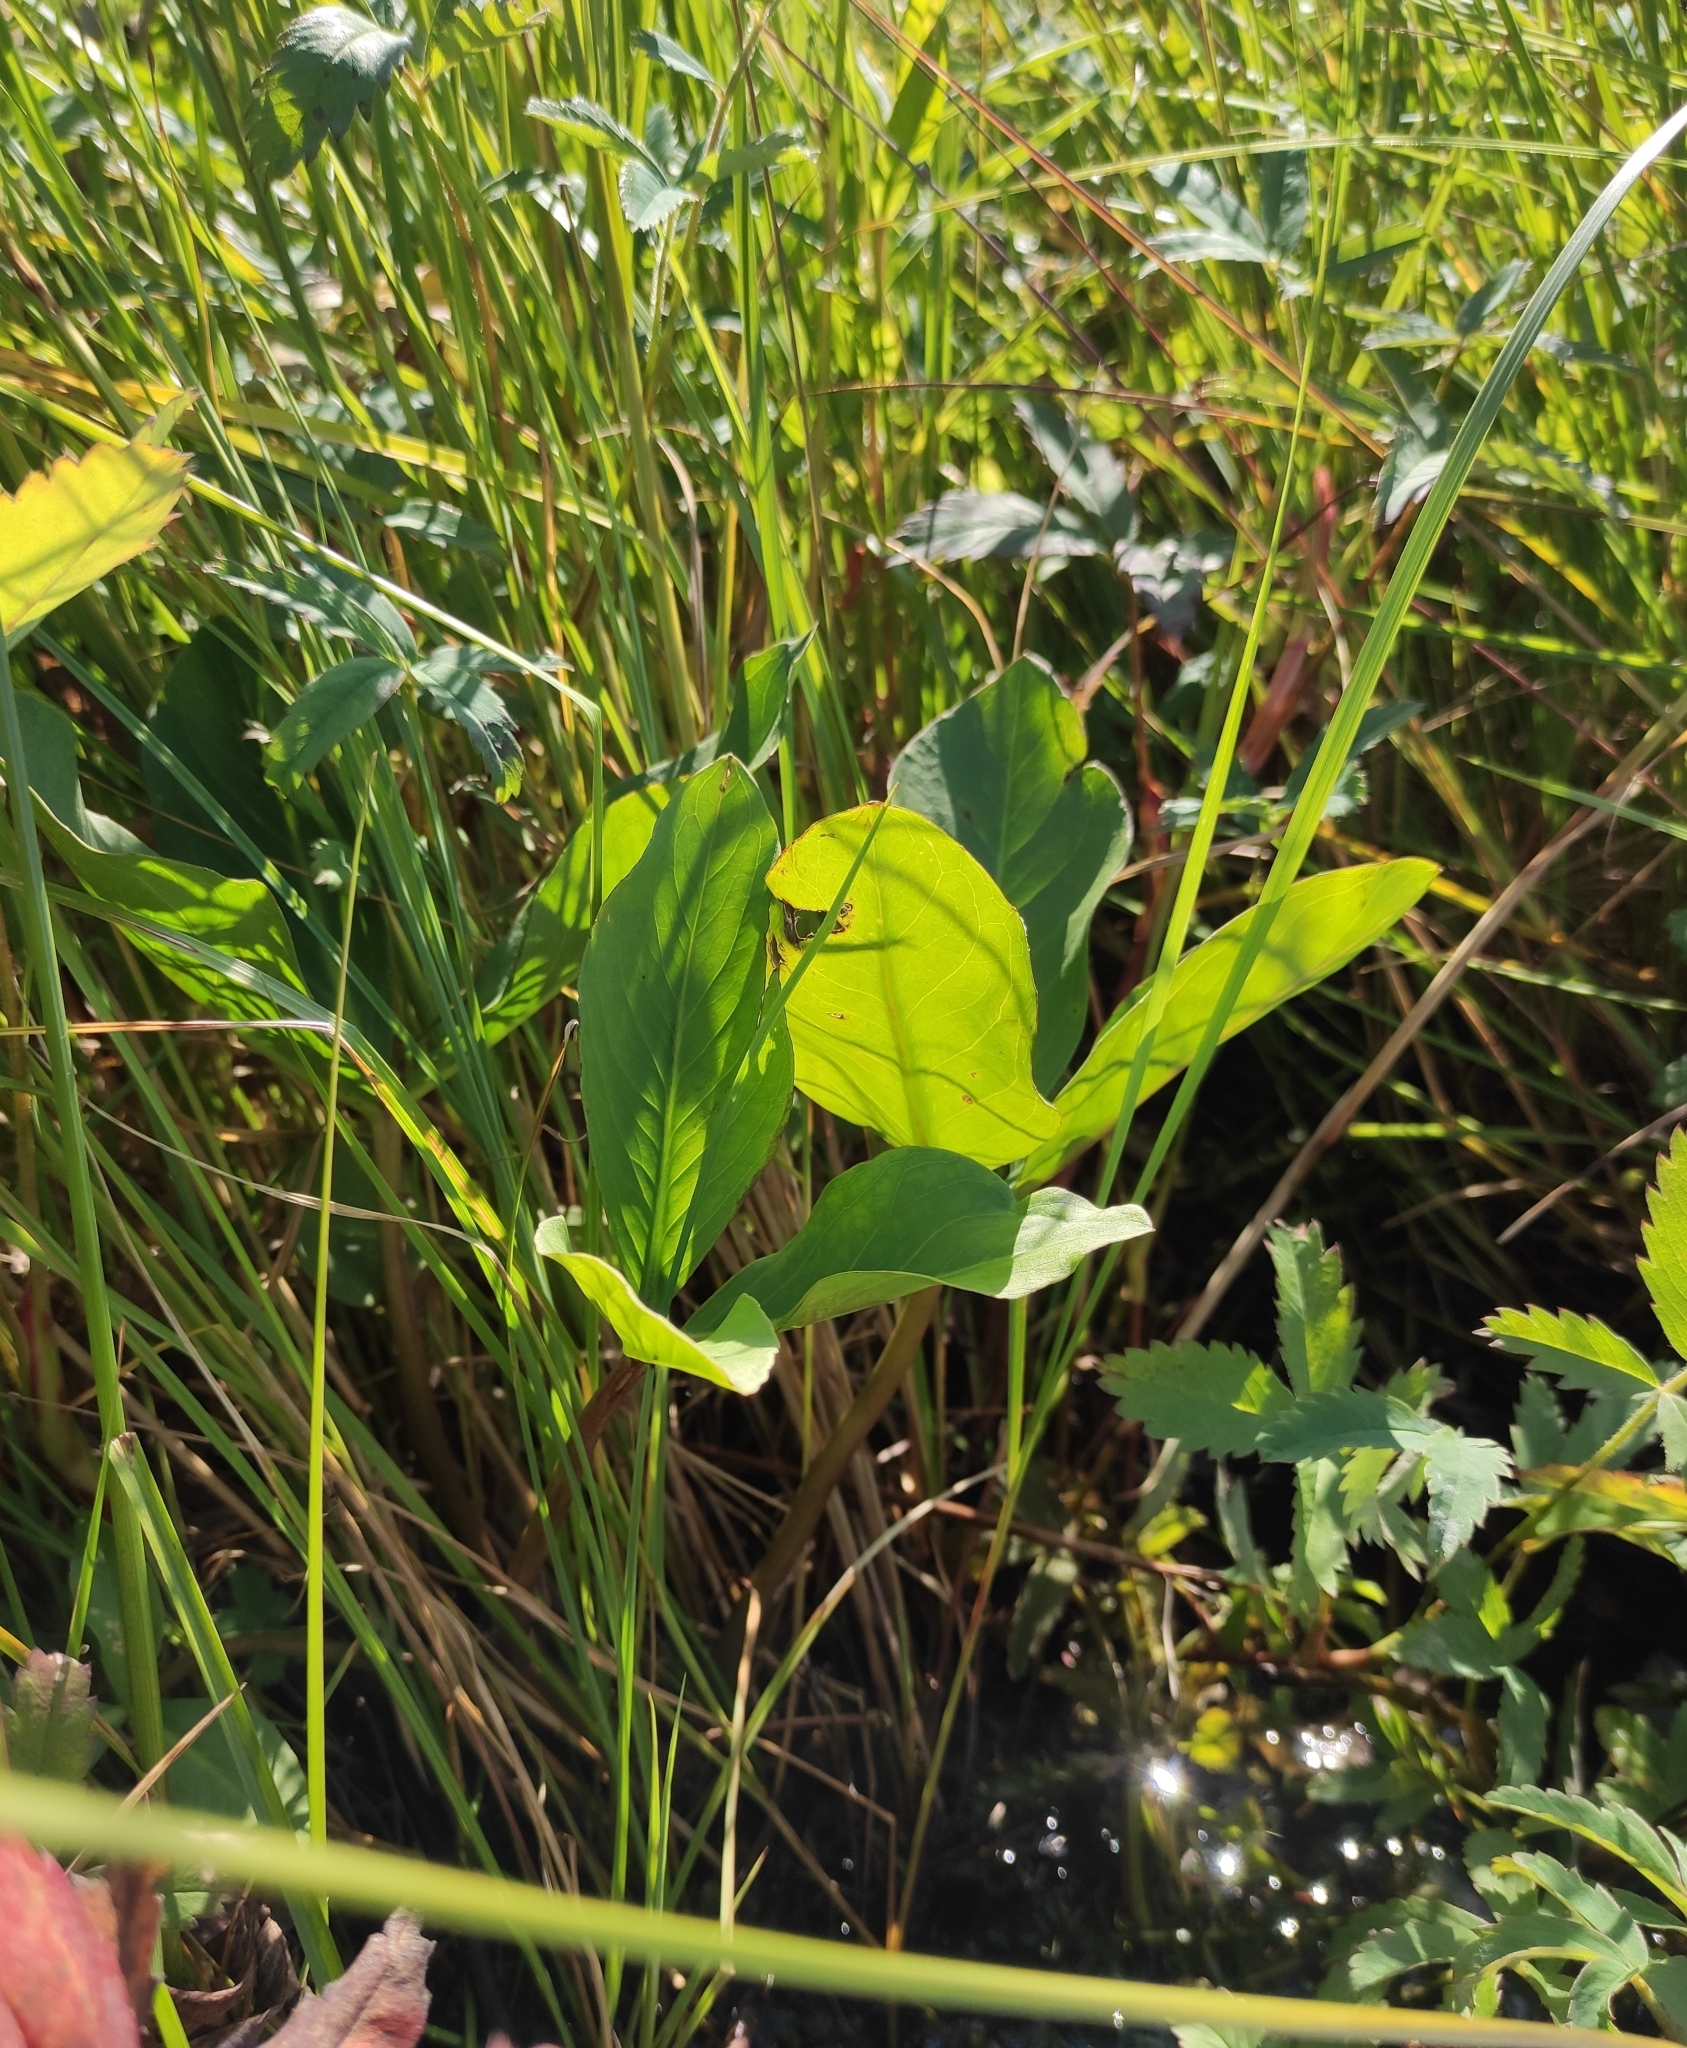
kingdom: Plantae
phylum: Tracheophyta
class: Magnoliopsida
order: Asterales
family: Menyanthaceae
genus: Menyanthes
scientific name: Menyanthes trifoliata
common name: Bogbean
